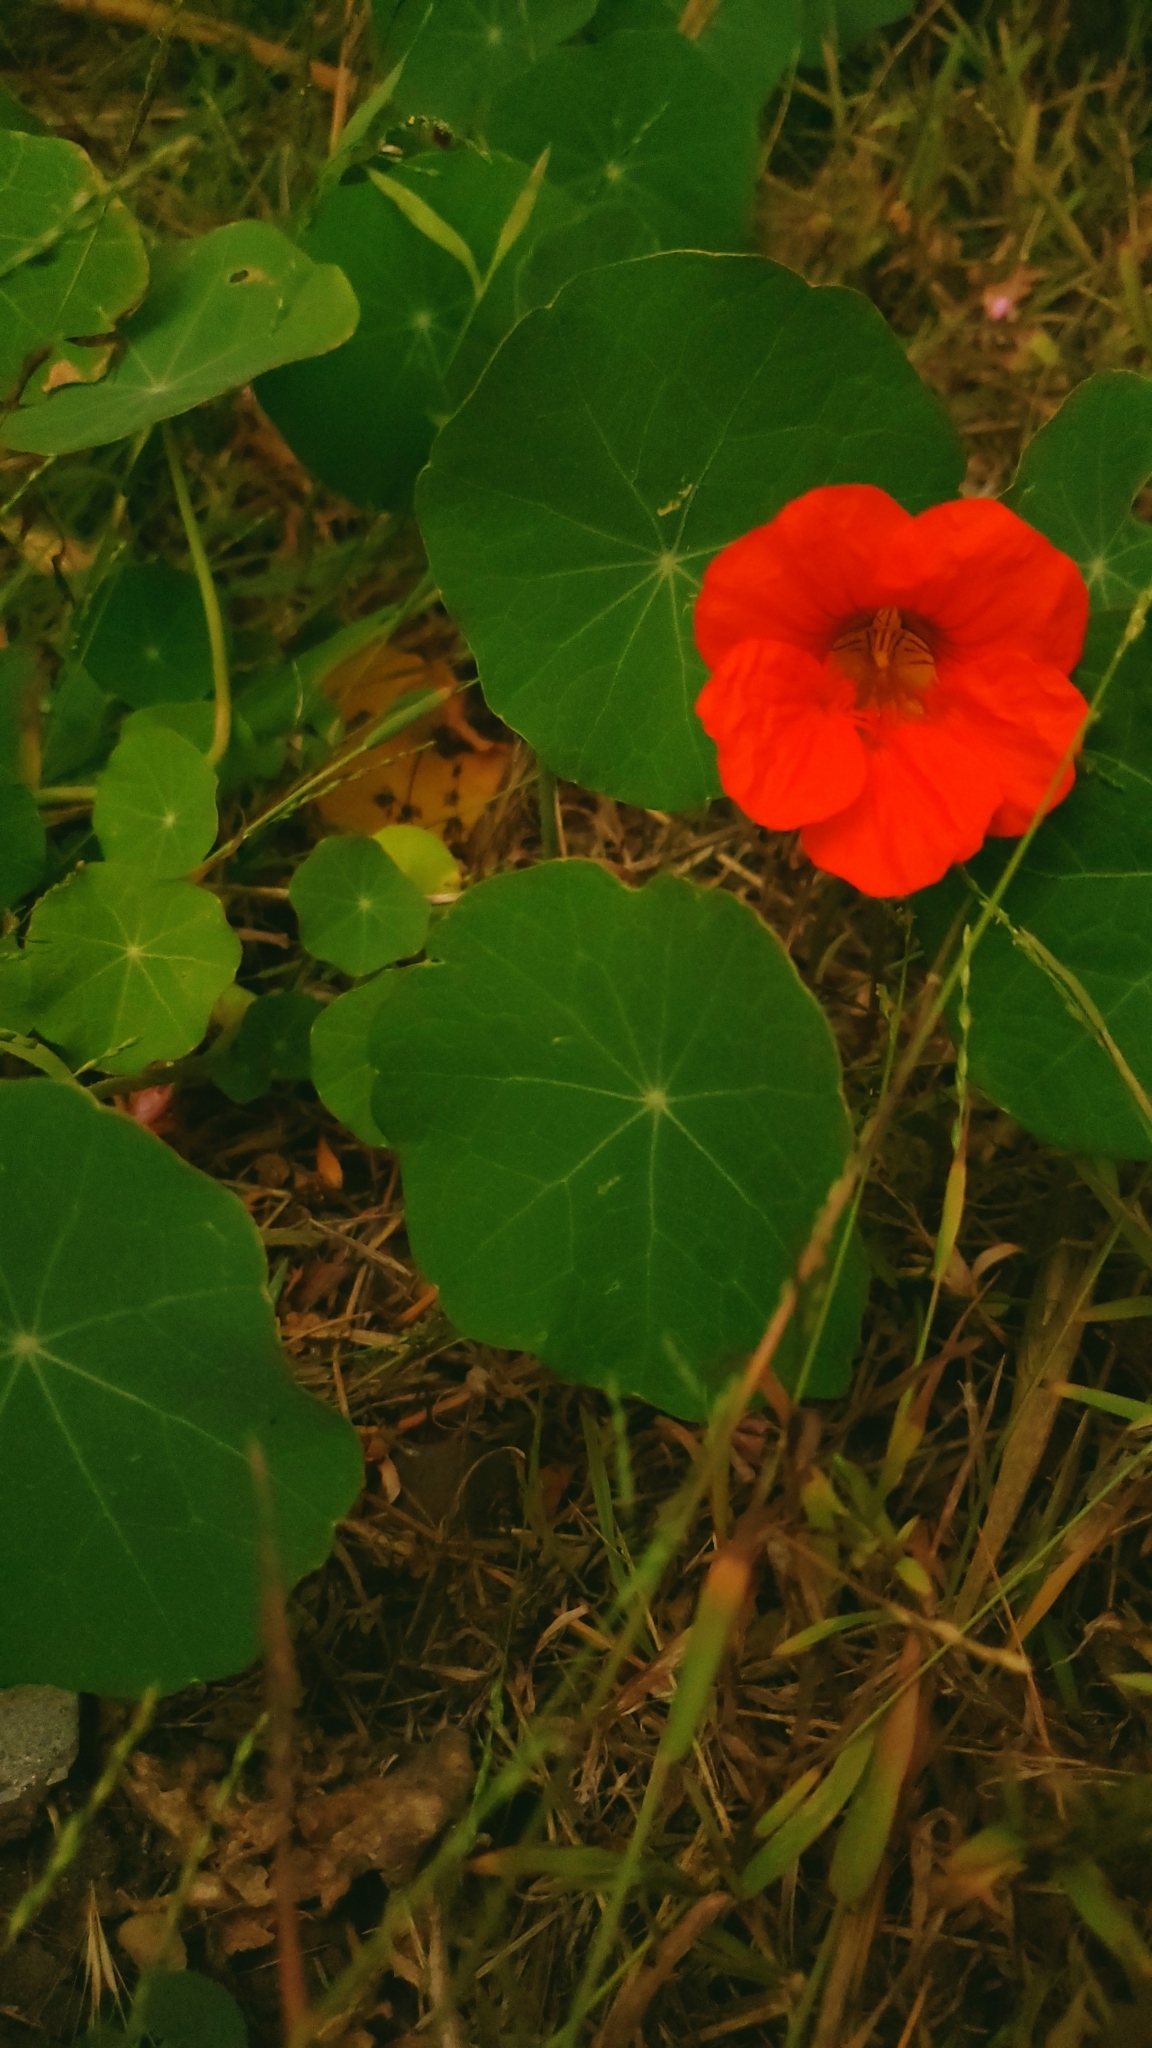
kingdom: Plantae
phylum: Tracheophyta
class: Magnoliopsida
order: Brassicales
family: Tropaeolaceae
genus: Tropaeolum
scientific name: Tropaeolum majus
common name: Nasturtium
